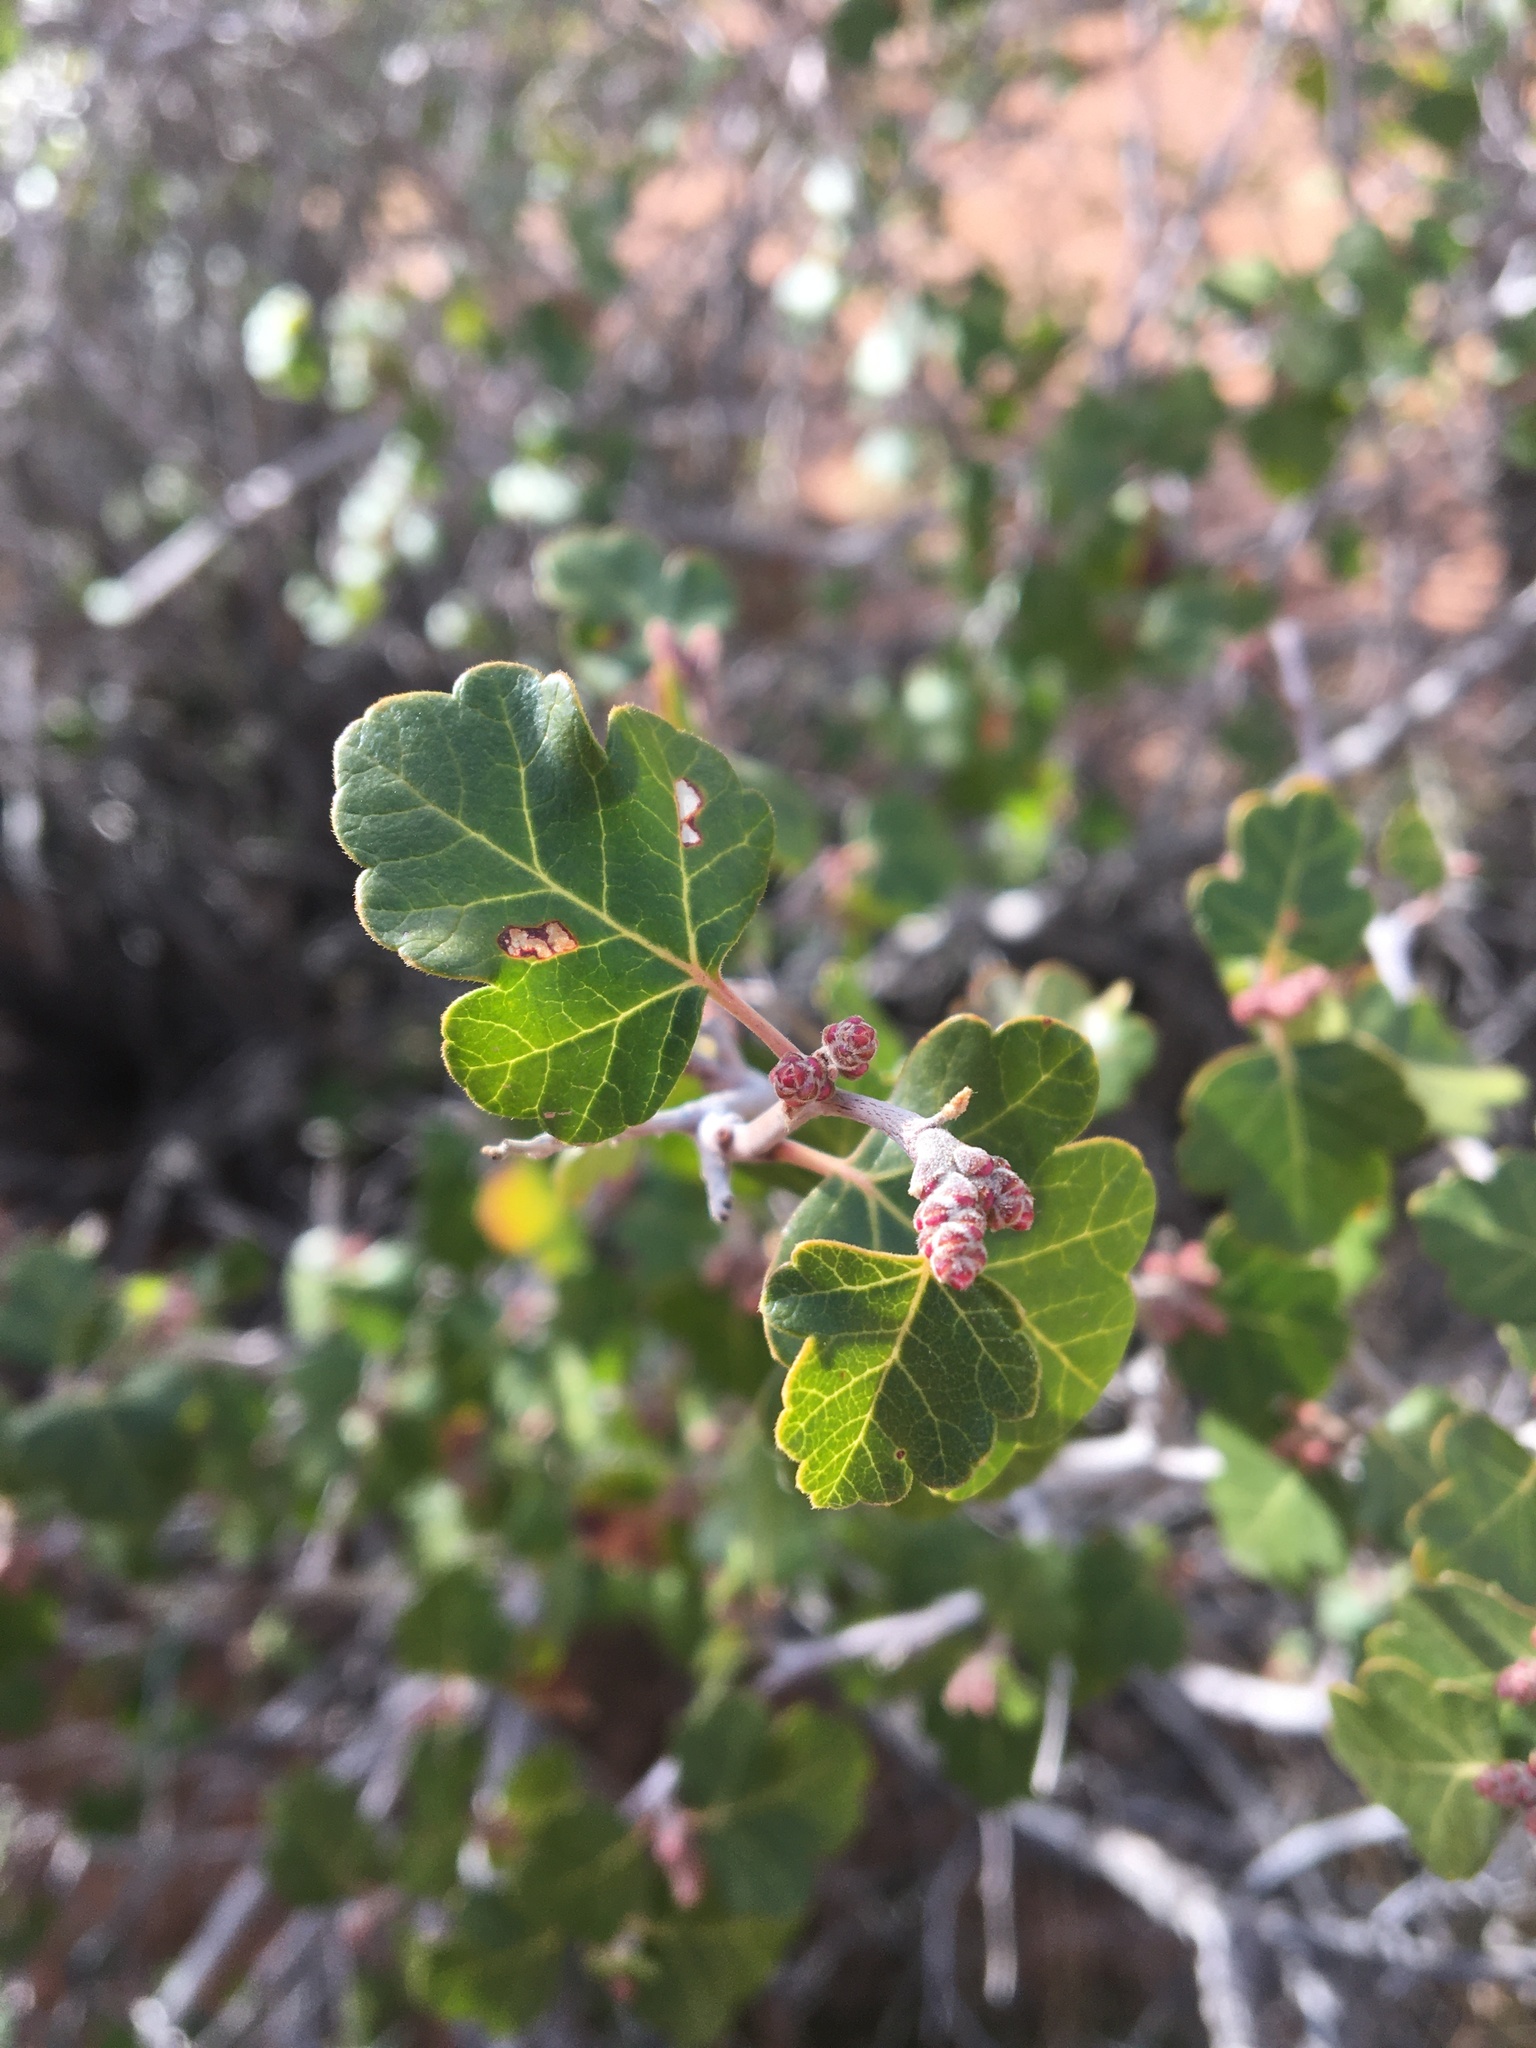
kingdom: Plantae
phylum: Tracheophyta
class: Magnoliopsida
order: Sapindales
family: Anacardiaceae
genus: Rhus
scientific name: Rhus aromatica
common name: Aromatic sumac
